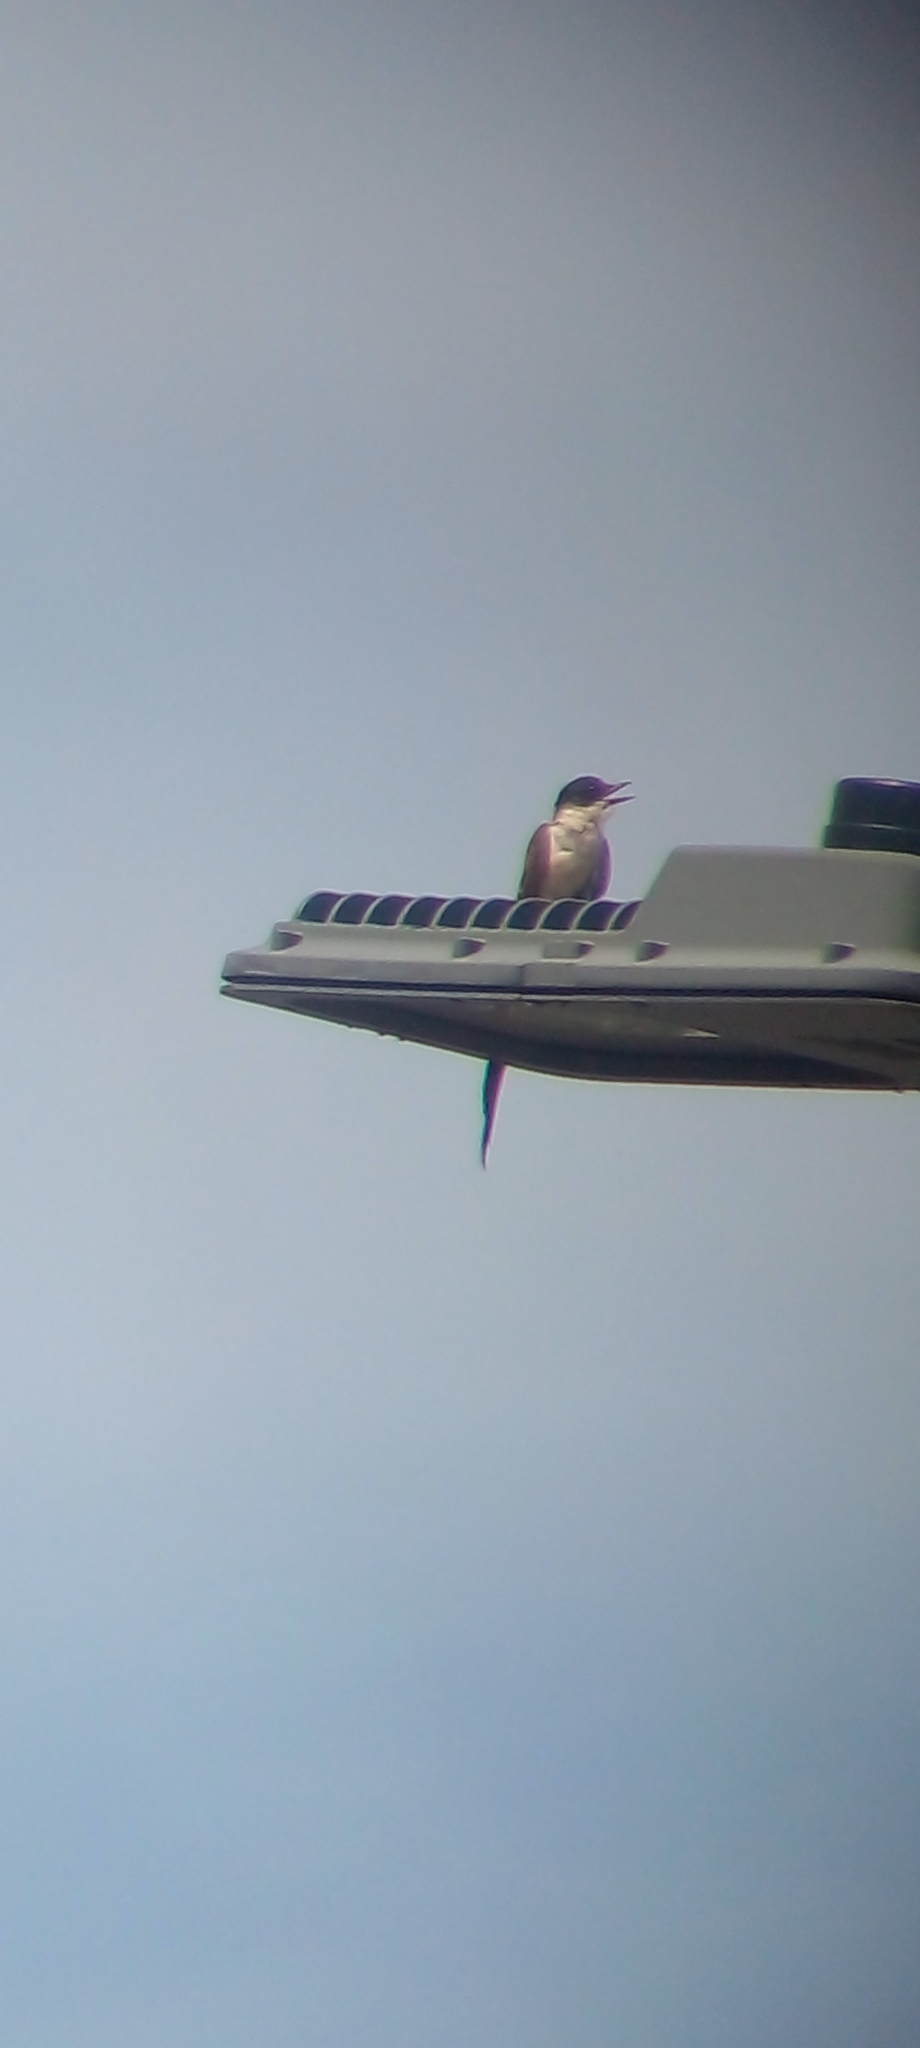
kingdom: Animalia
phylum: Chordata
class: Aves
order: Passeriformes
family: Tyrannidae
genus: Tyrannus
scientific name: Tyrannus savana
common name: Fork-tailed flycatcher
